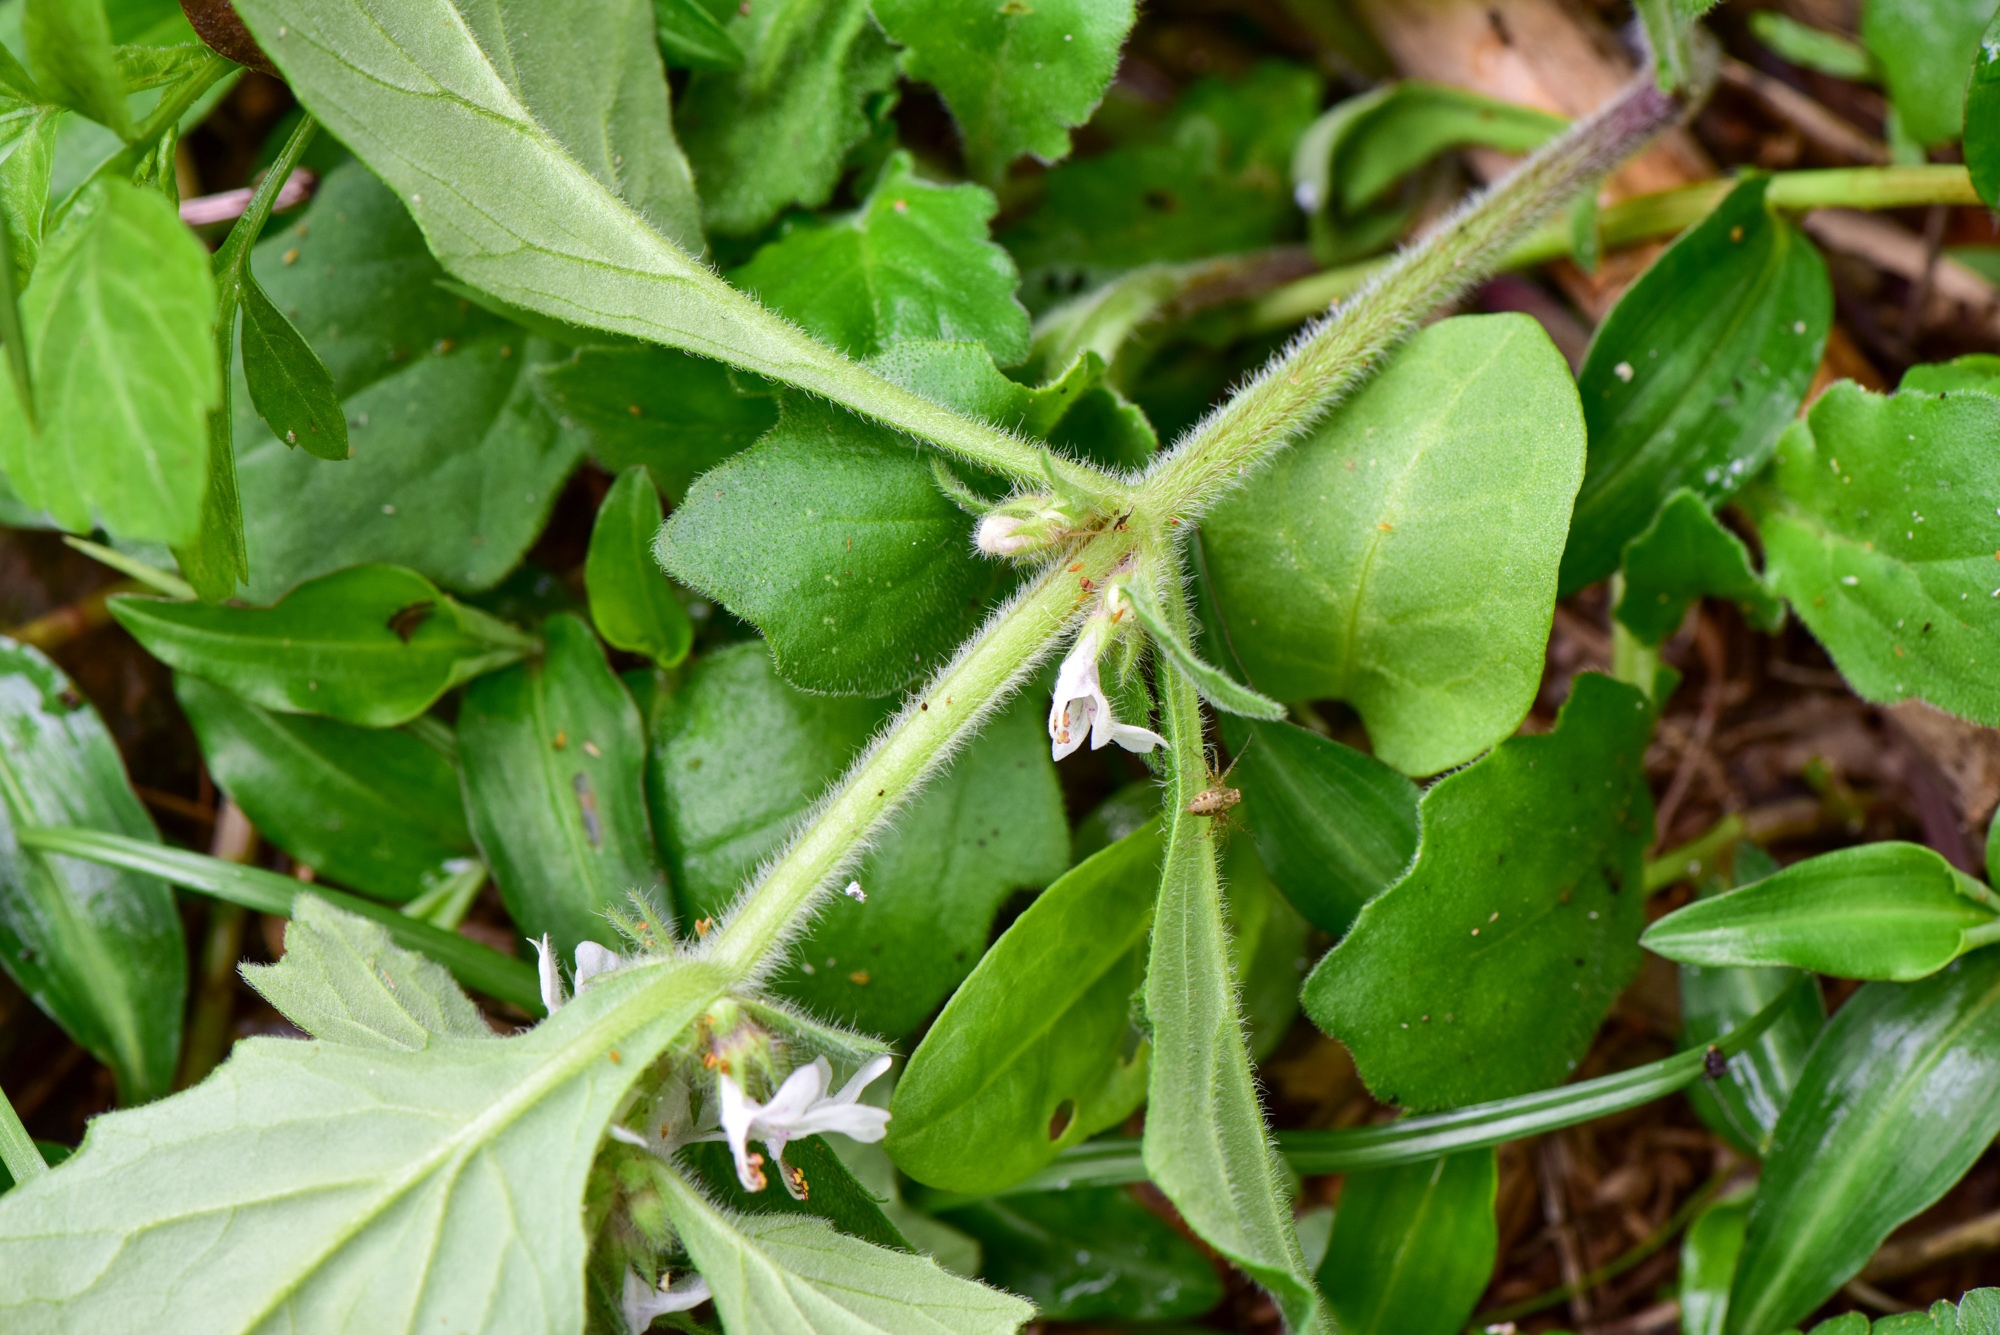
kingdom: Plantae
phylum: Tracheophyta
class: Magnoliopsida
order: Lamiales
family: Lamiaceae
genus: Ajuga
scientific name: Ajuga nipponensis
